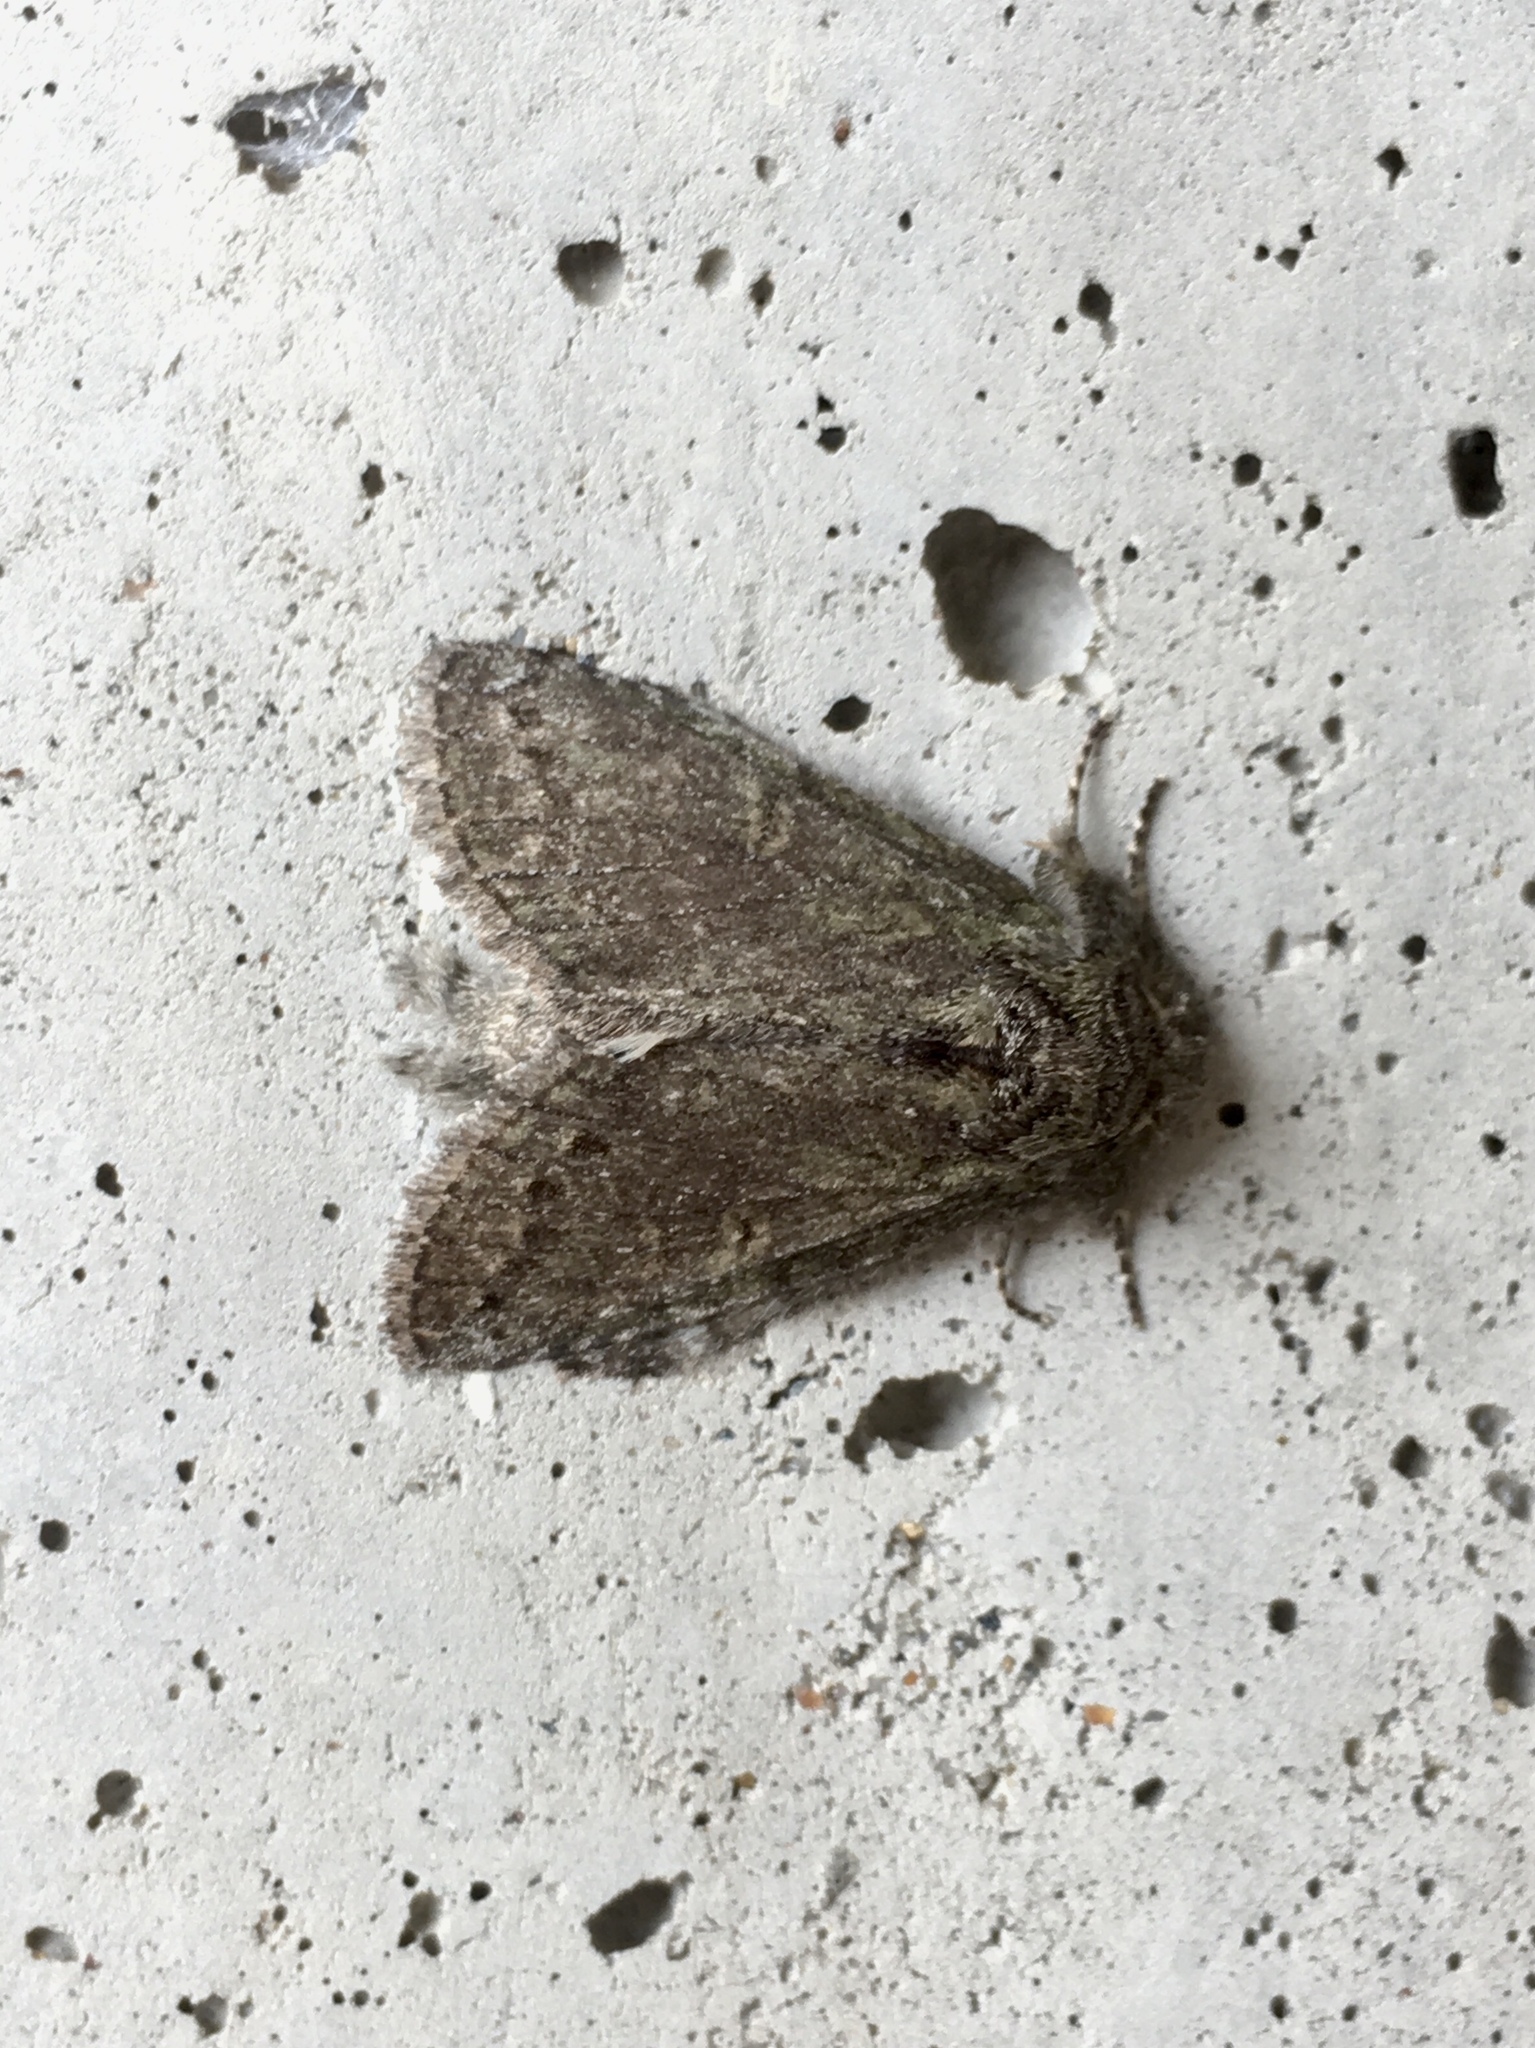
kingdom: Animalia
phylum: Arthropoda
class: Insecta
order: Lepidoptera
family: Notodontidae
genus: Disphragis
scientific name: Disphragis Cecrita guttivitta
